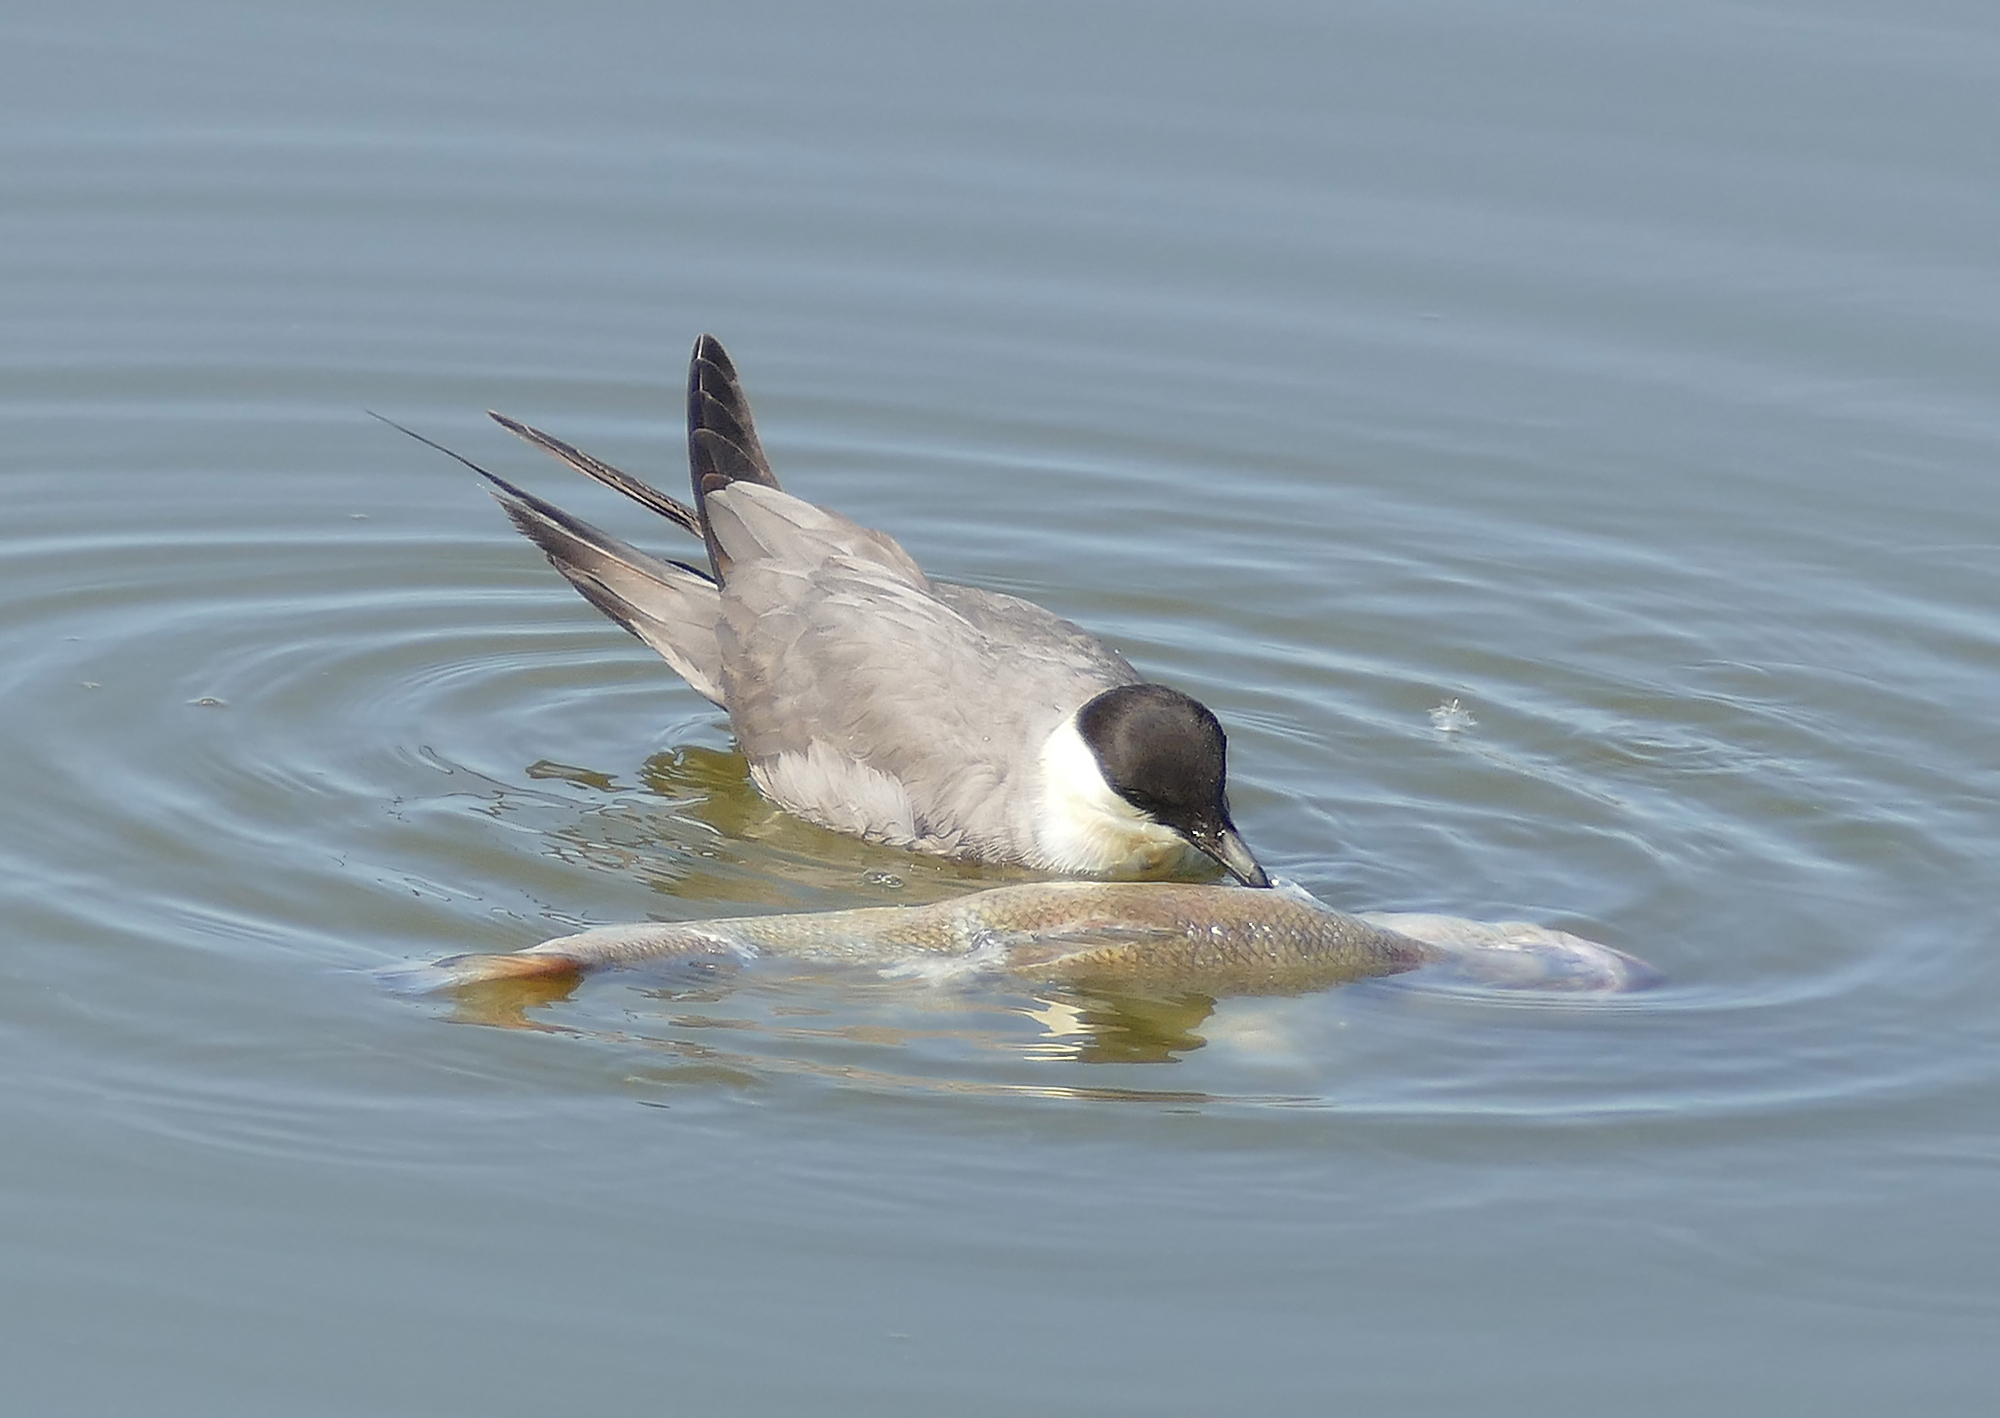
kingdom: Animalia
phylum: Chordata
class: Aves
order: Charadriiformes
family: Stercorariidae
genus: Stercorarius
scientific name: Stercorarius longicaudus
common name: Long-tailed jaeger
